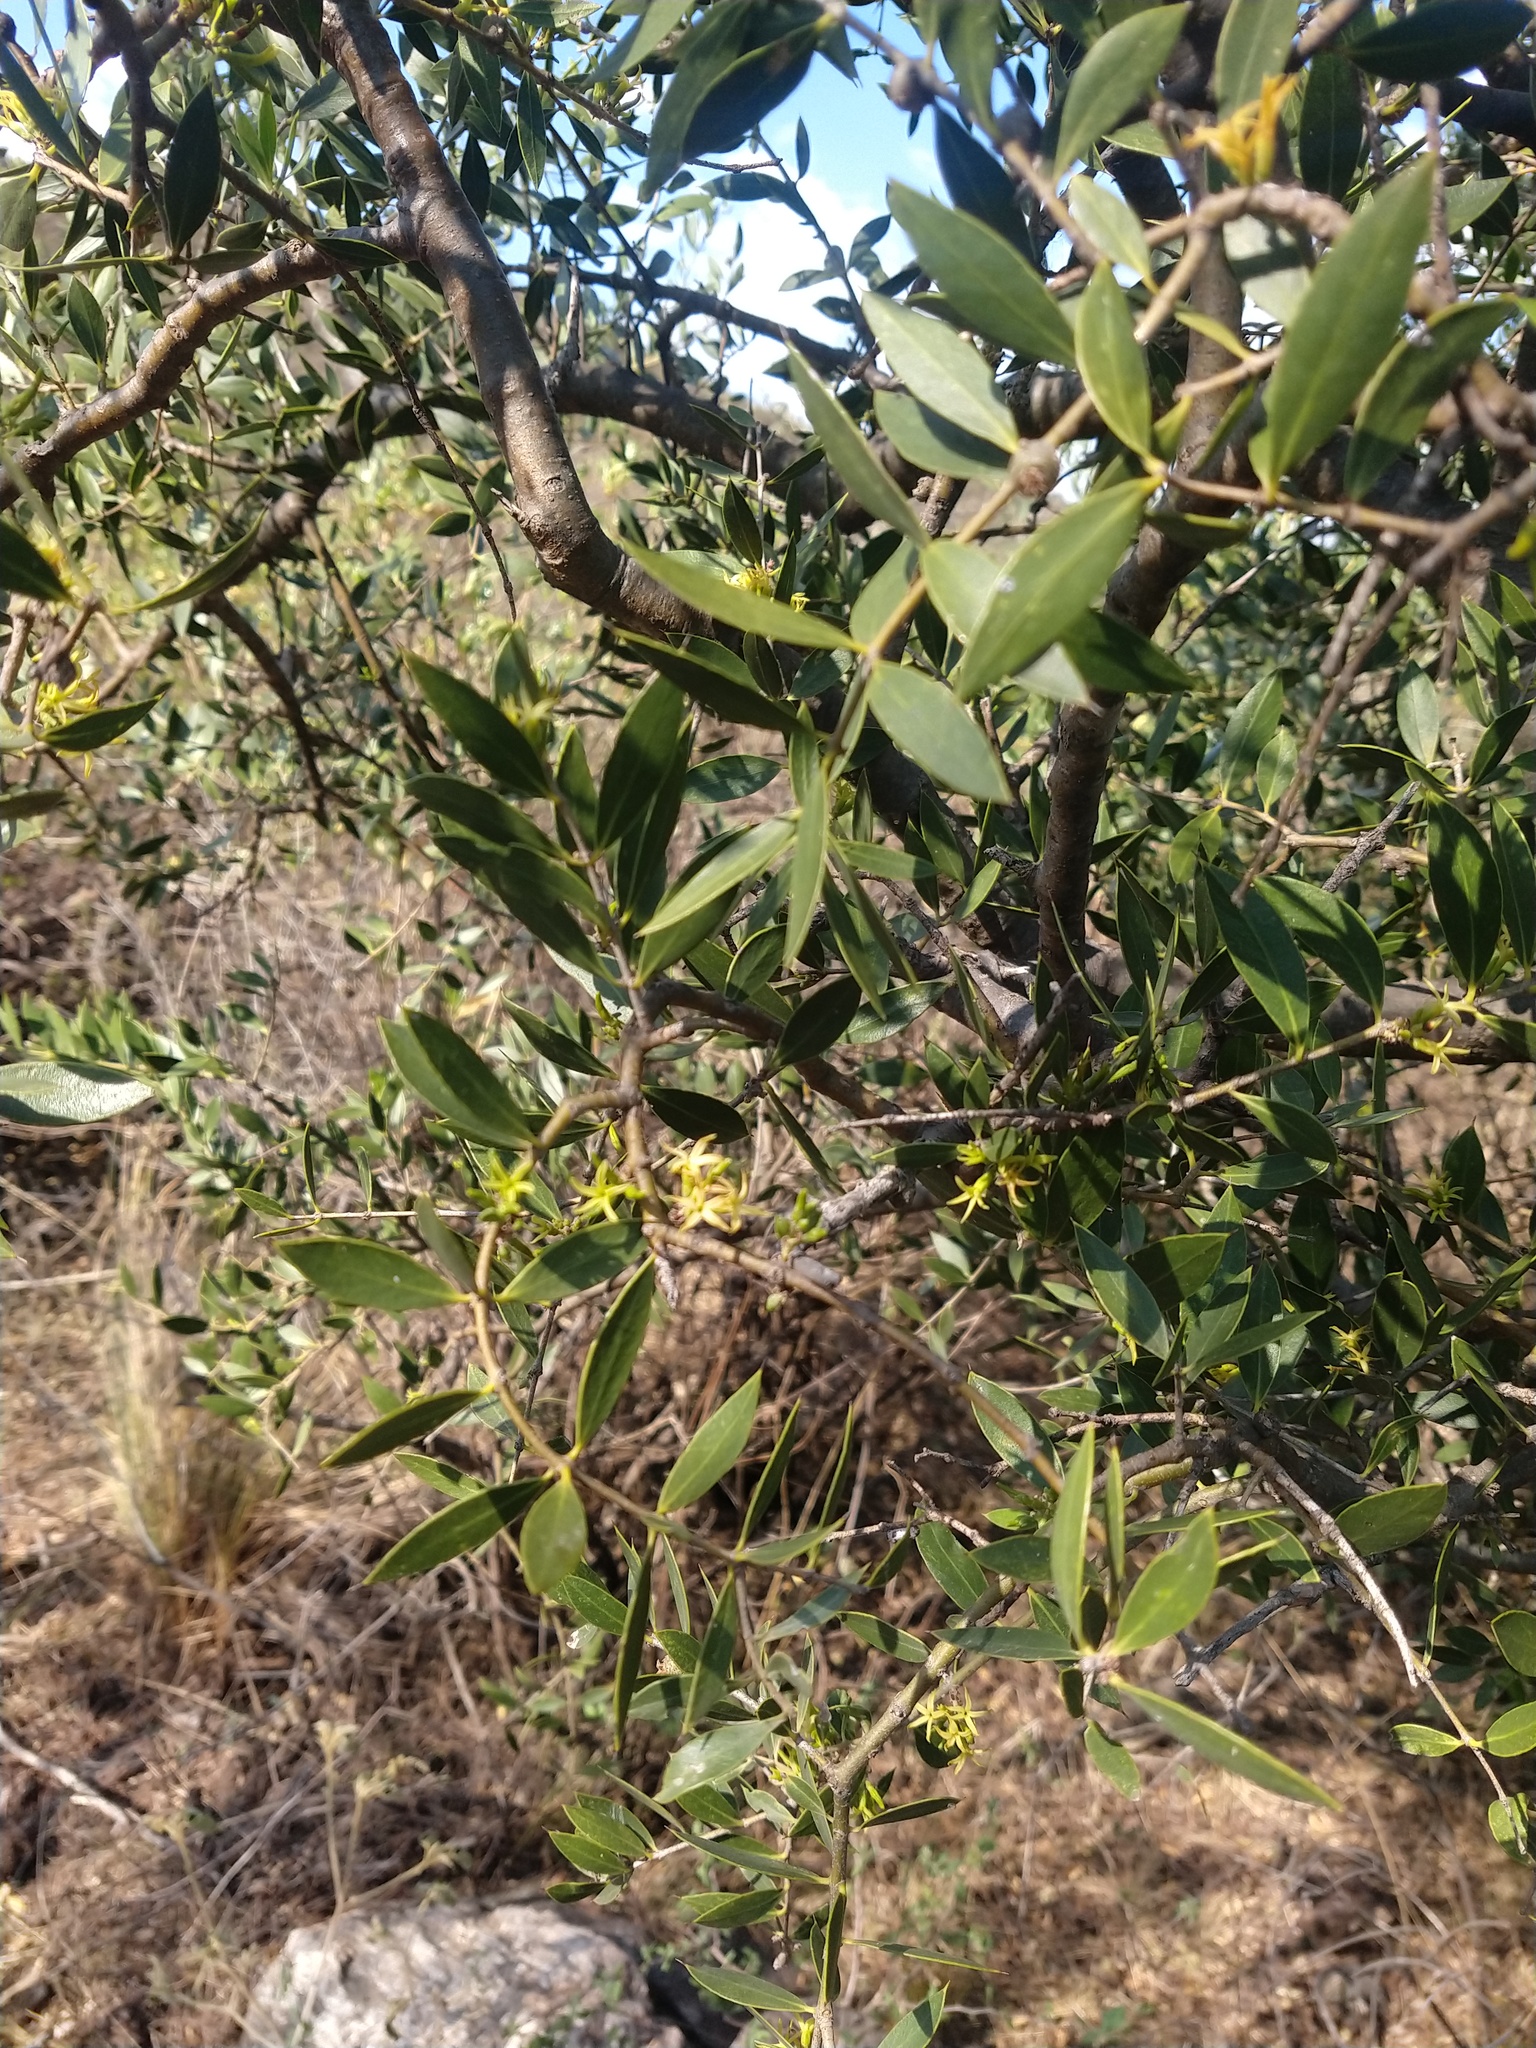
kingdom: Plantae
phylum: Tracheophyta
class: Magnoliopsida
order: Gentianales
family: Apocynaceae
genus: Aspidosperma
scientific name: Aspidosperma quebracho-blanco
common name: White quebracho
